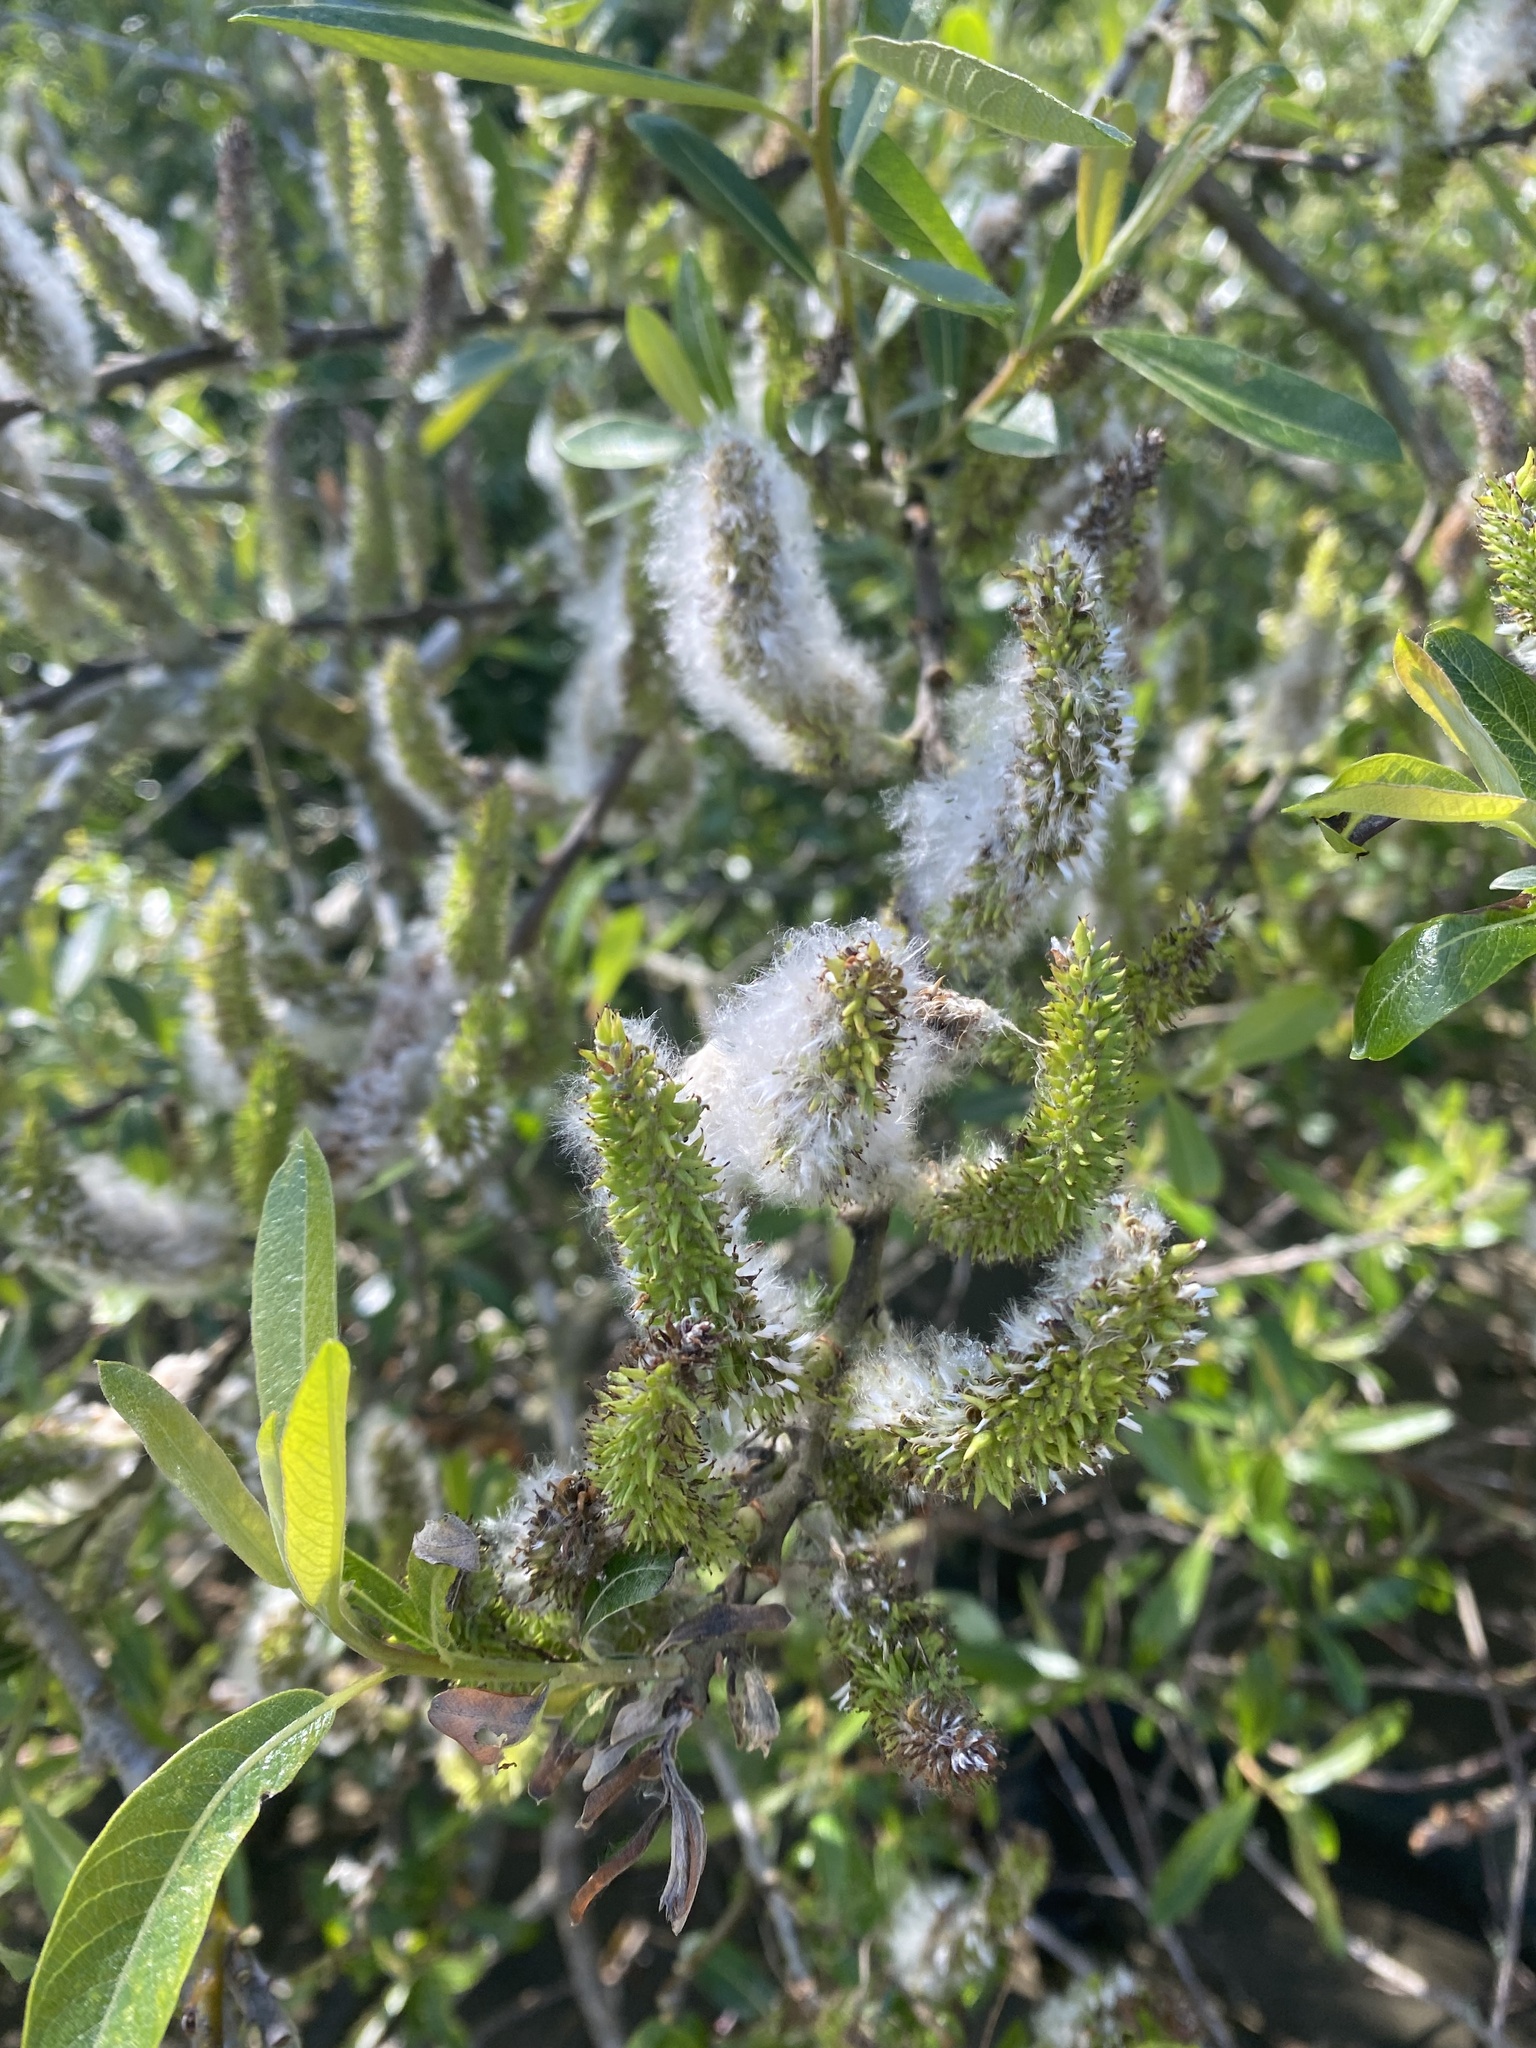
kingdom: Plantae
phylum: Tracheophyta
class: Magnoliopsida
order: Malpighiales
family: Salicaceae
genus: Salix
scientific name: Salix lasiolepis
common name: Arroyo willow
